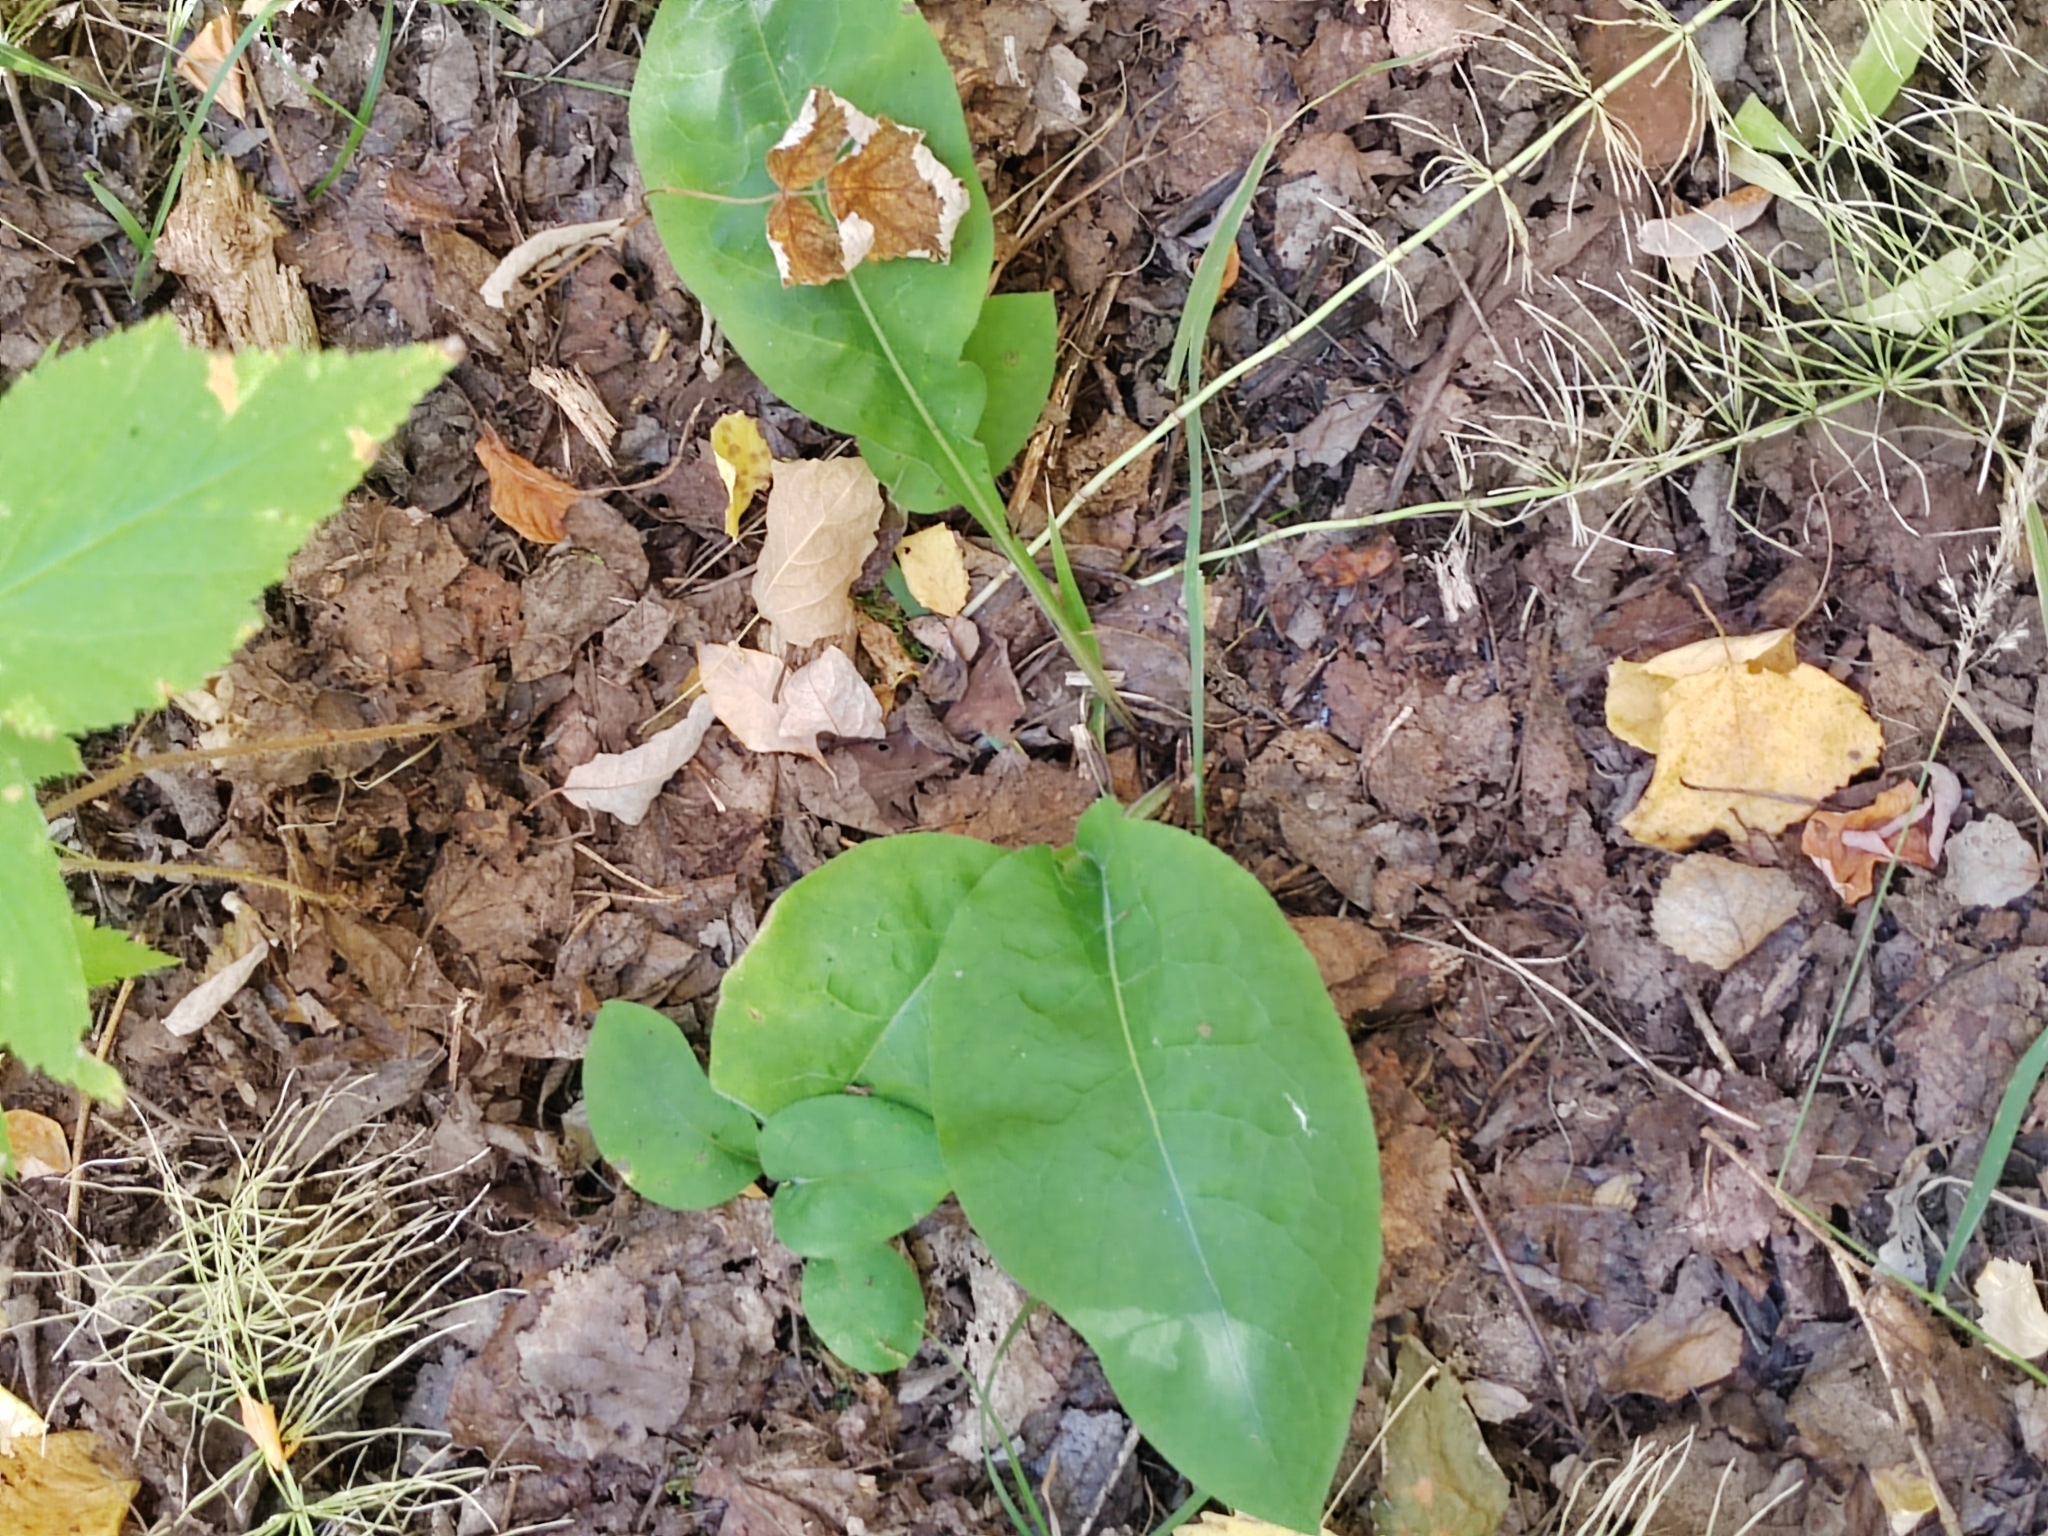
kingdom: Plantae
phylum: Tracheophyta
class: Magnoliopsida
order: Boraginales
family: Boraginaceae
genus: Pulmonaria
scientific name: Pulmonaria mollis
